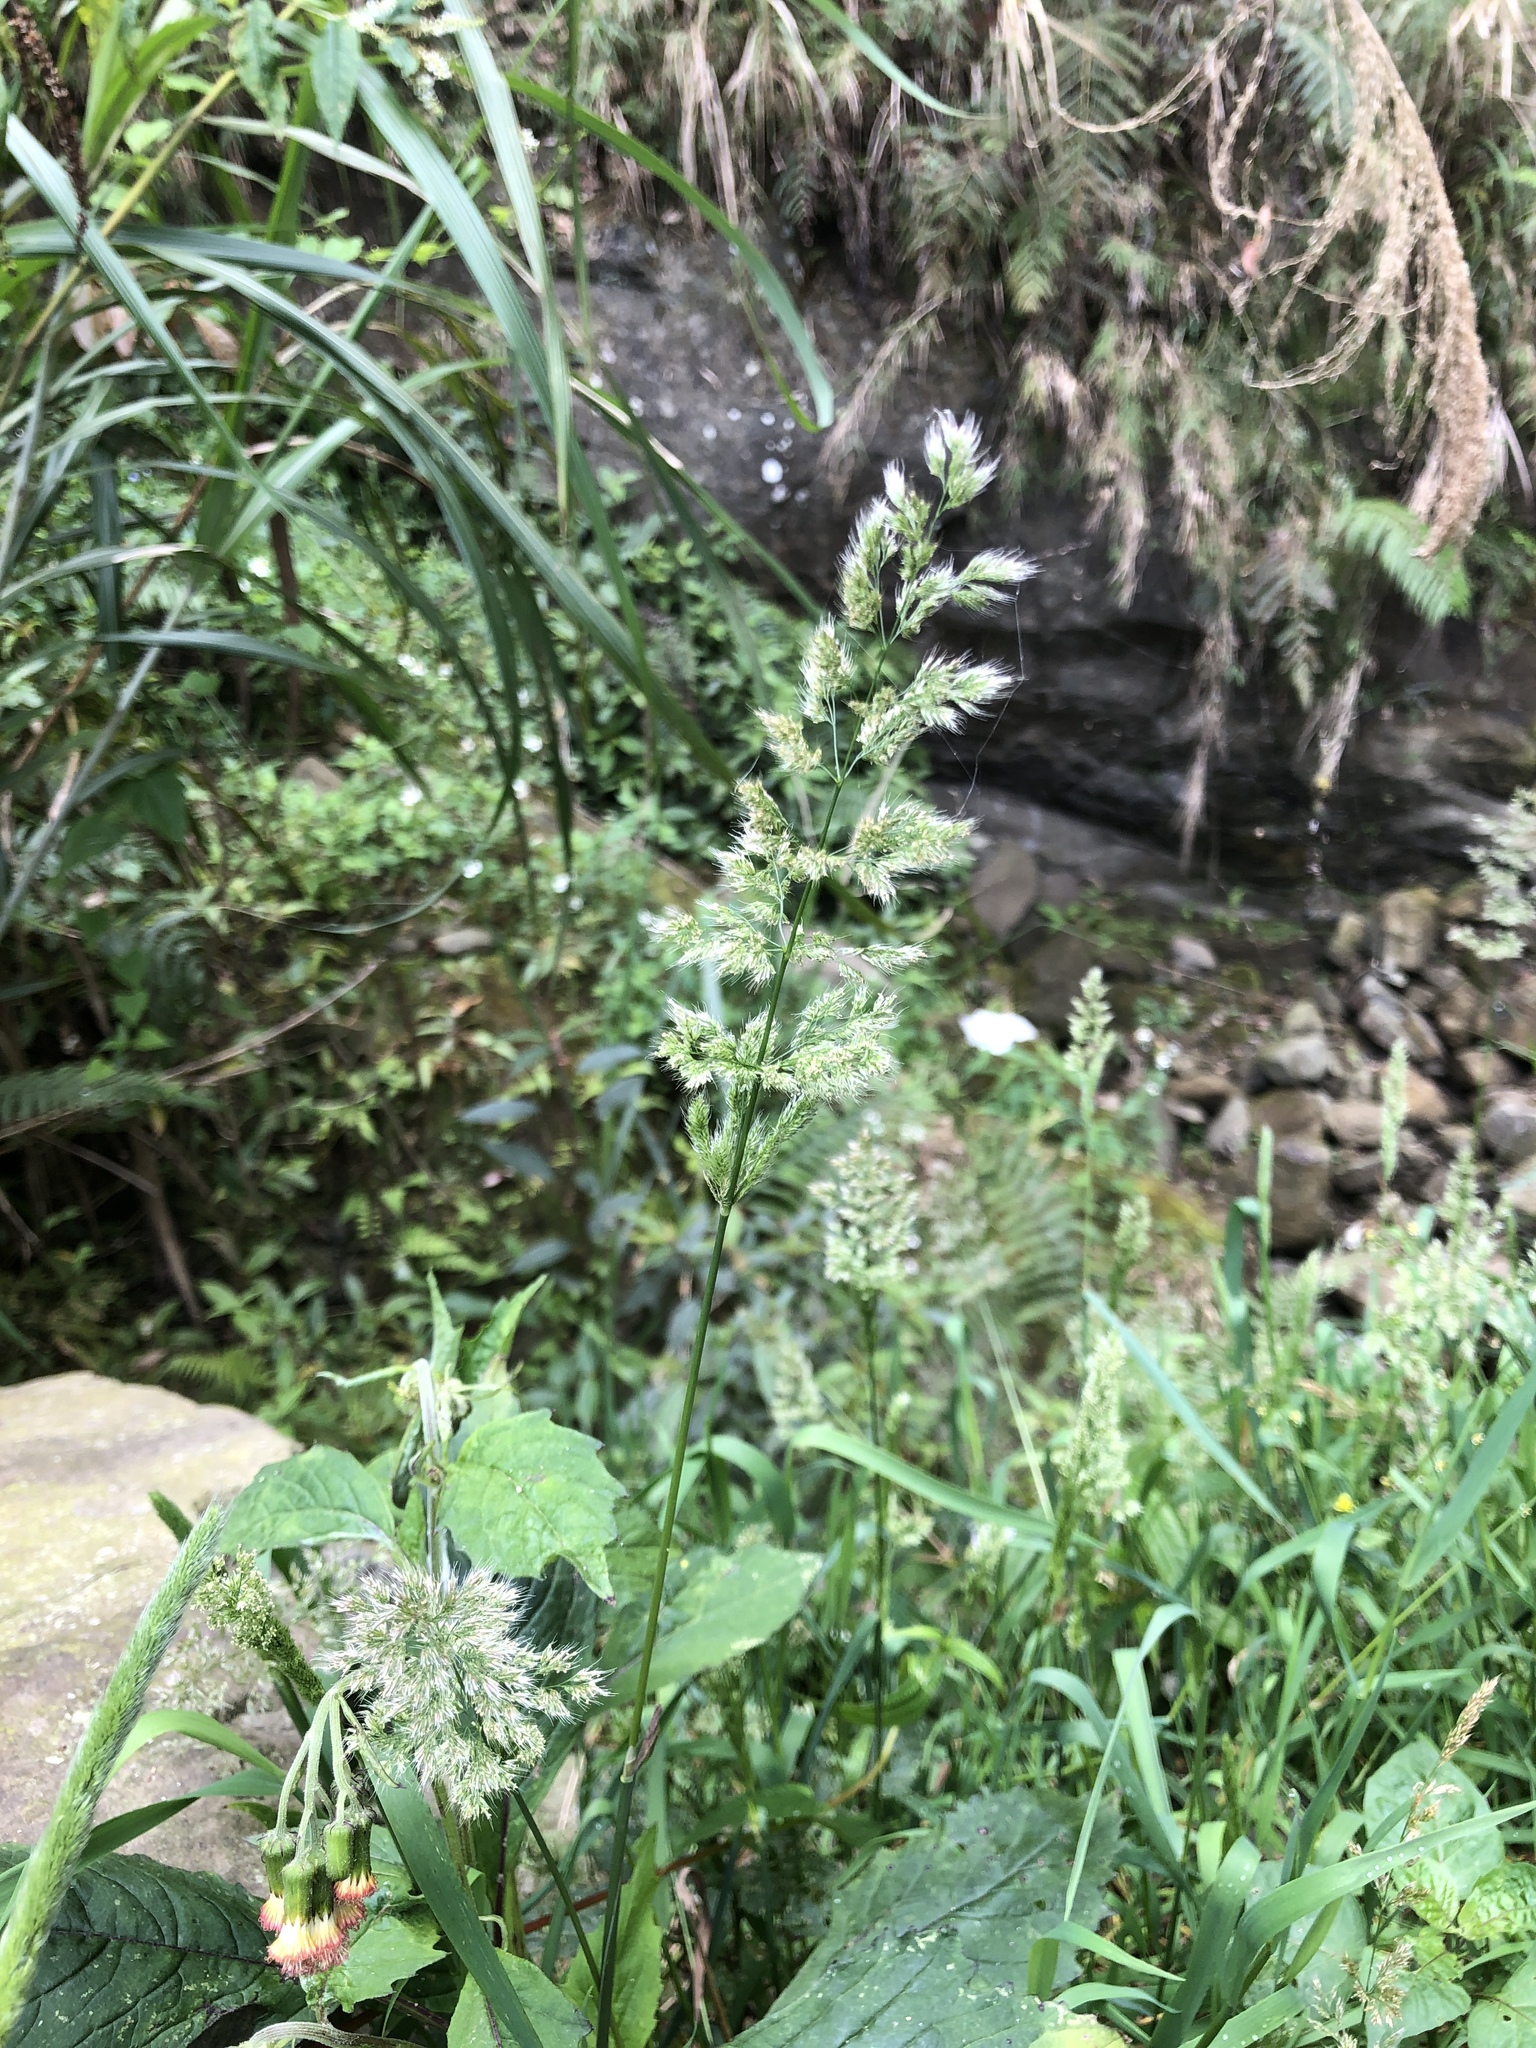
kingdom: Plantae
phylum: Tracheophyta
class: Liliopsida
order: Poales
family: Poaceae
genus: Polypogon
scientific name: Polypogon fugax
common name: Asia minor bluegrass
